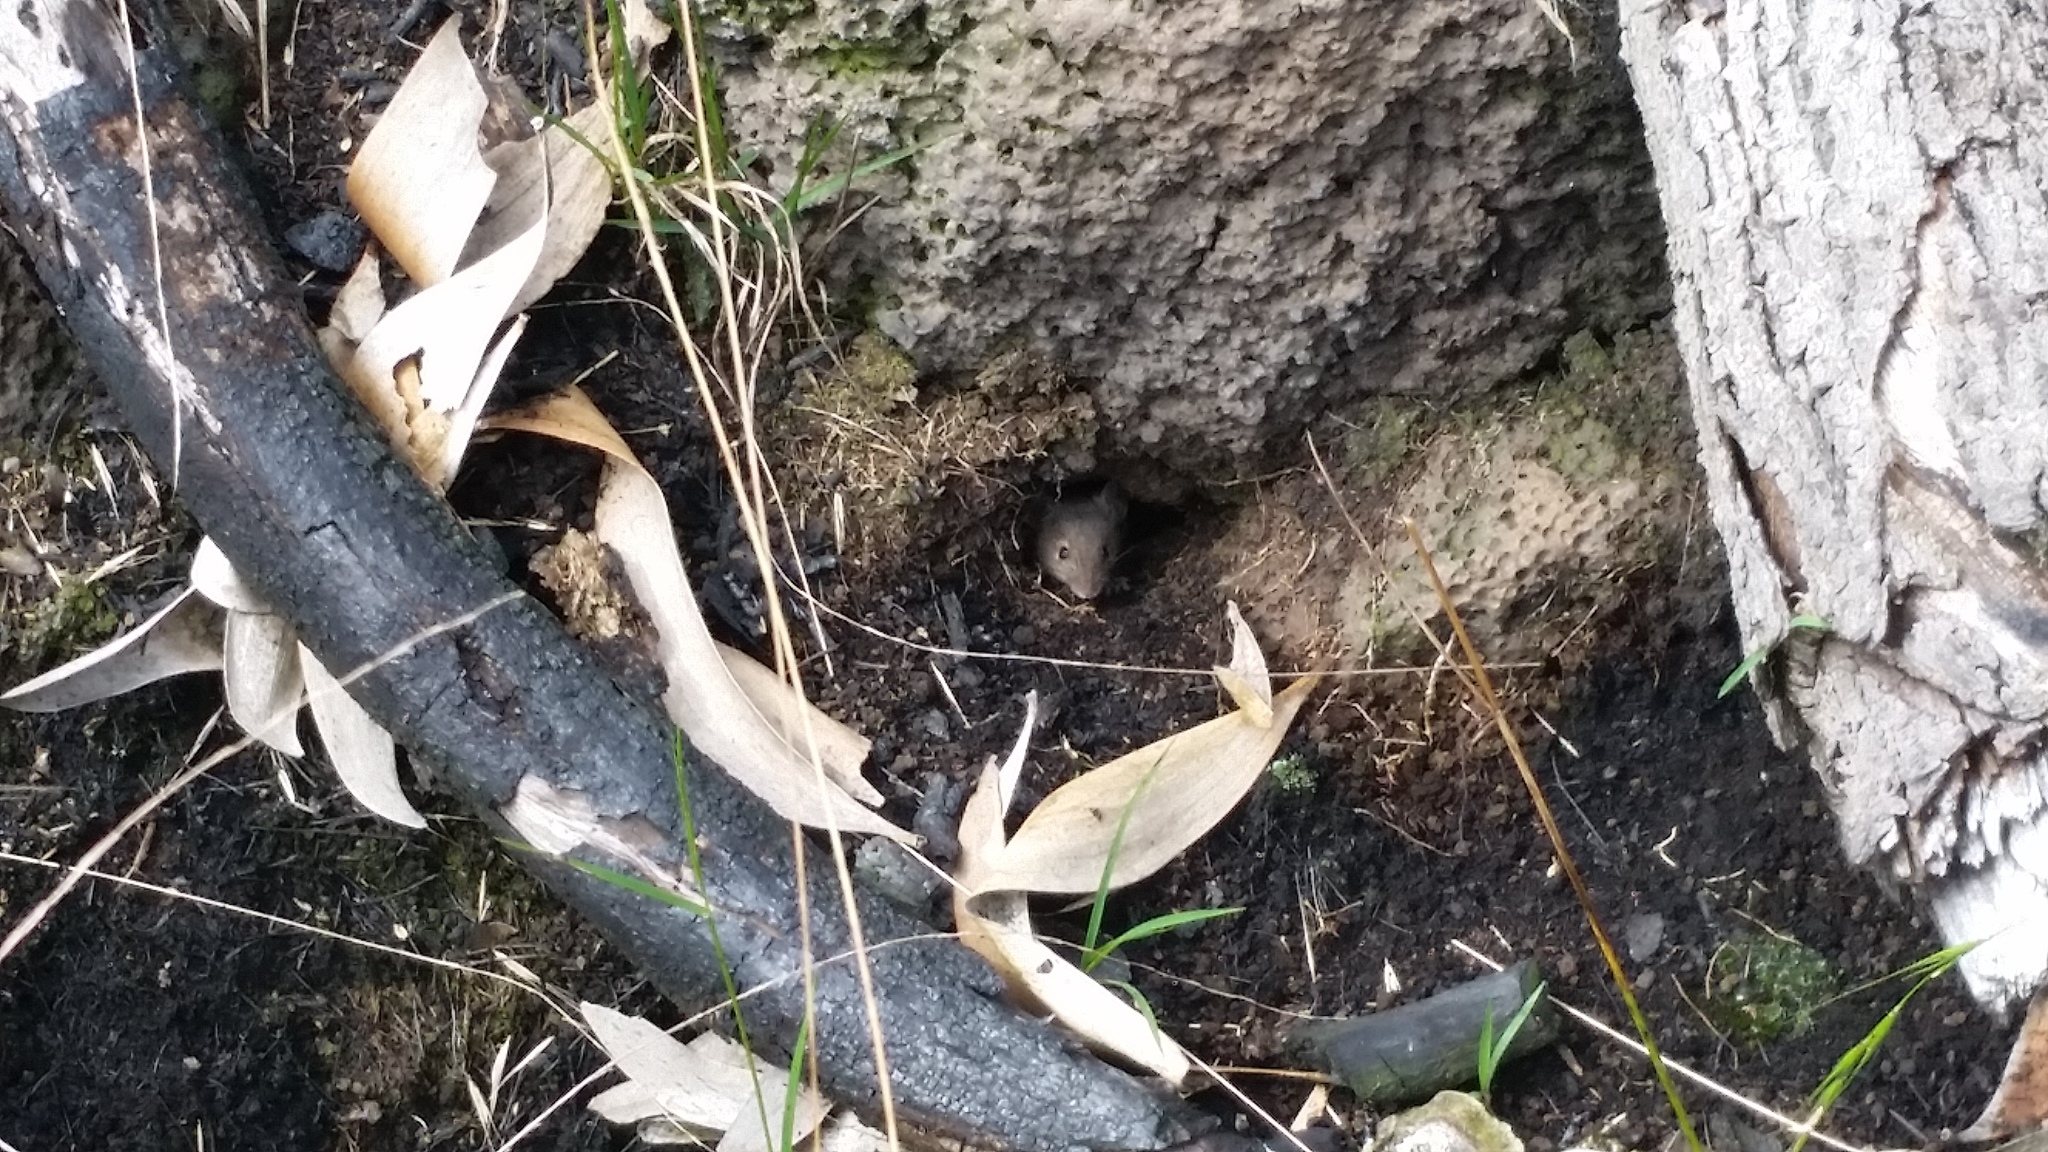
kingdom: Animalia
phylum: Chordata
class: Mammalia
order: Rodentia
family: Muridae
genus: Mus
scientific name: Mus musculus
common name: House mouse
